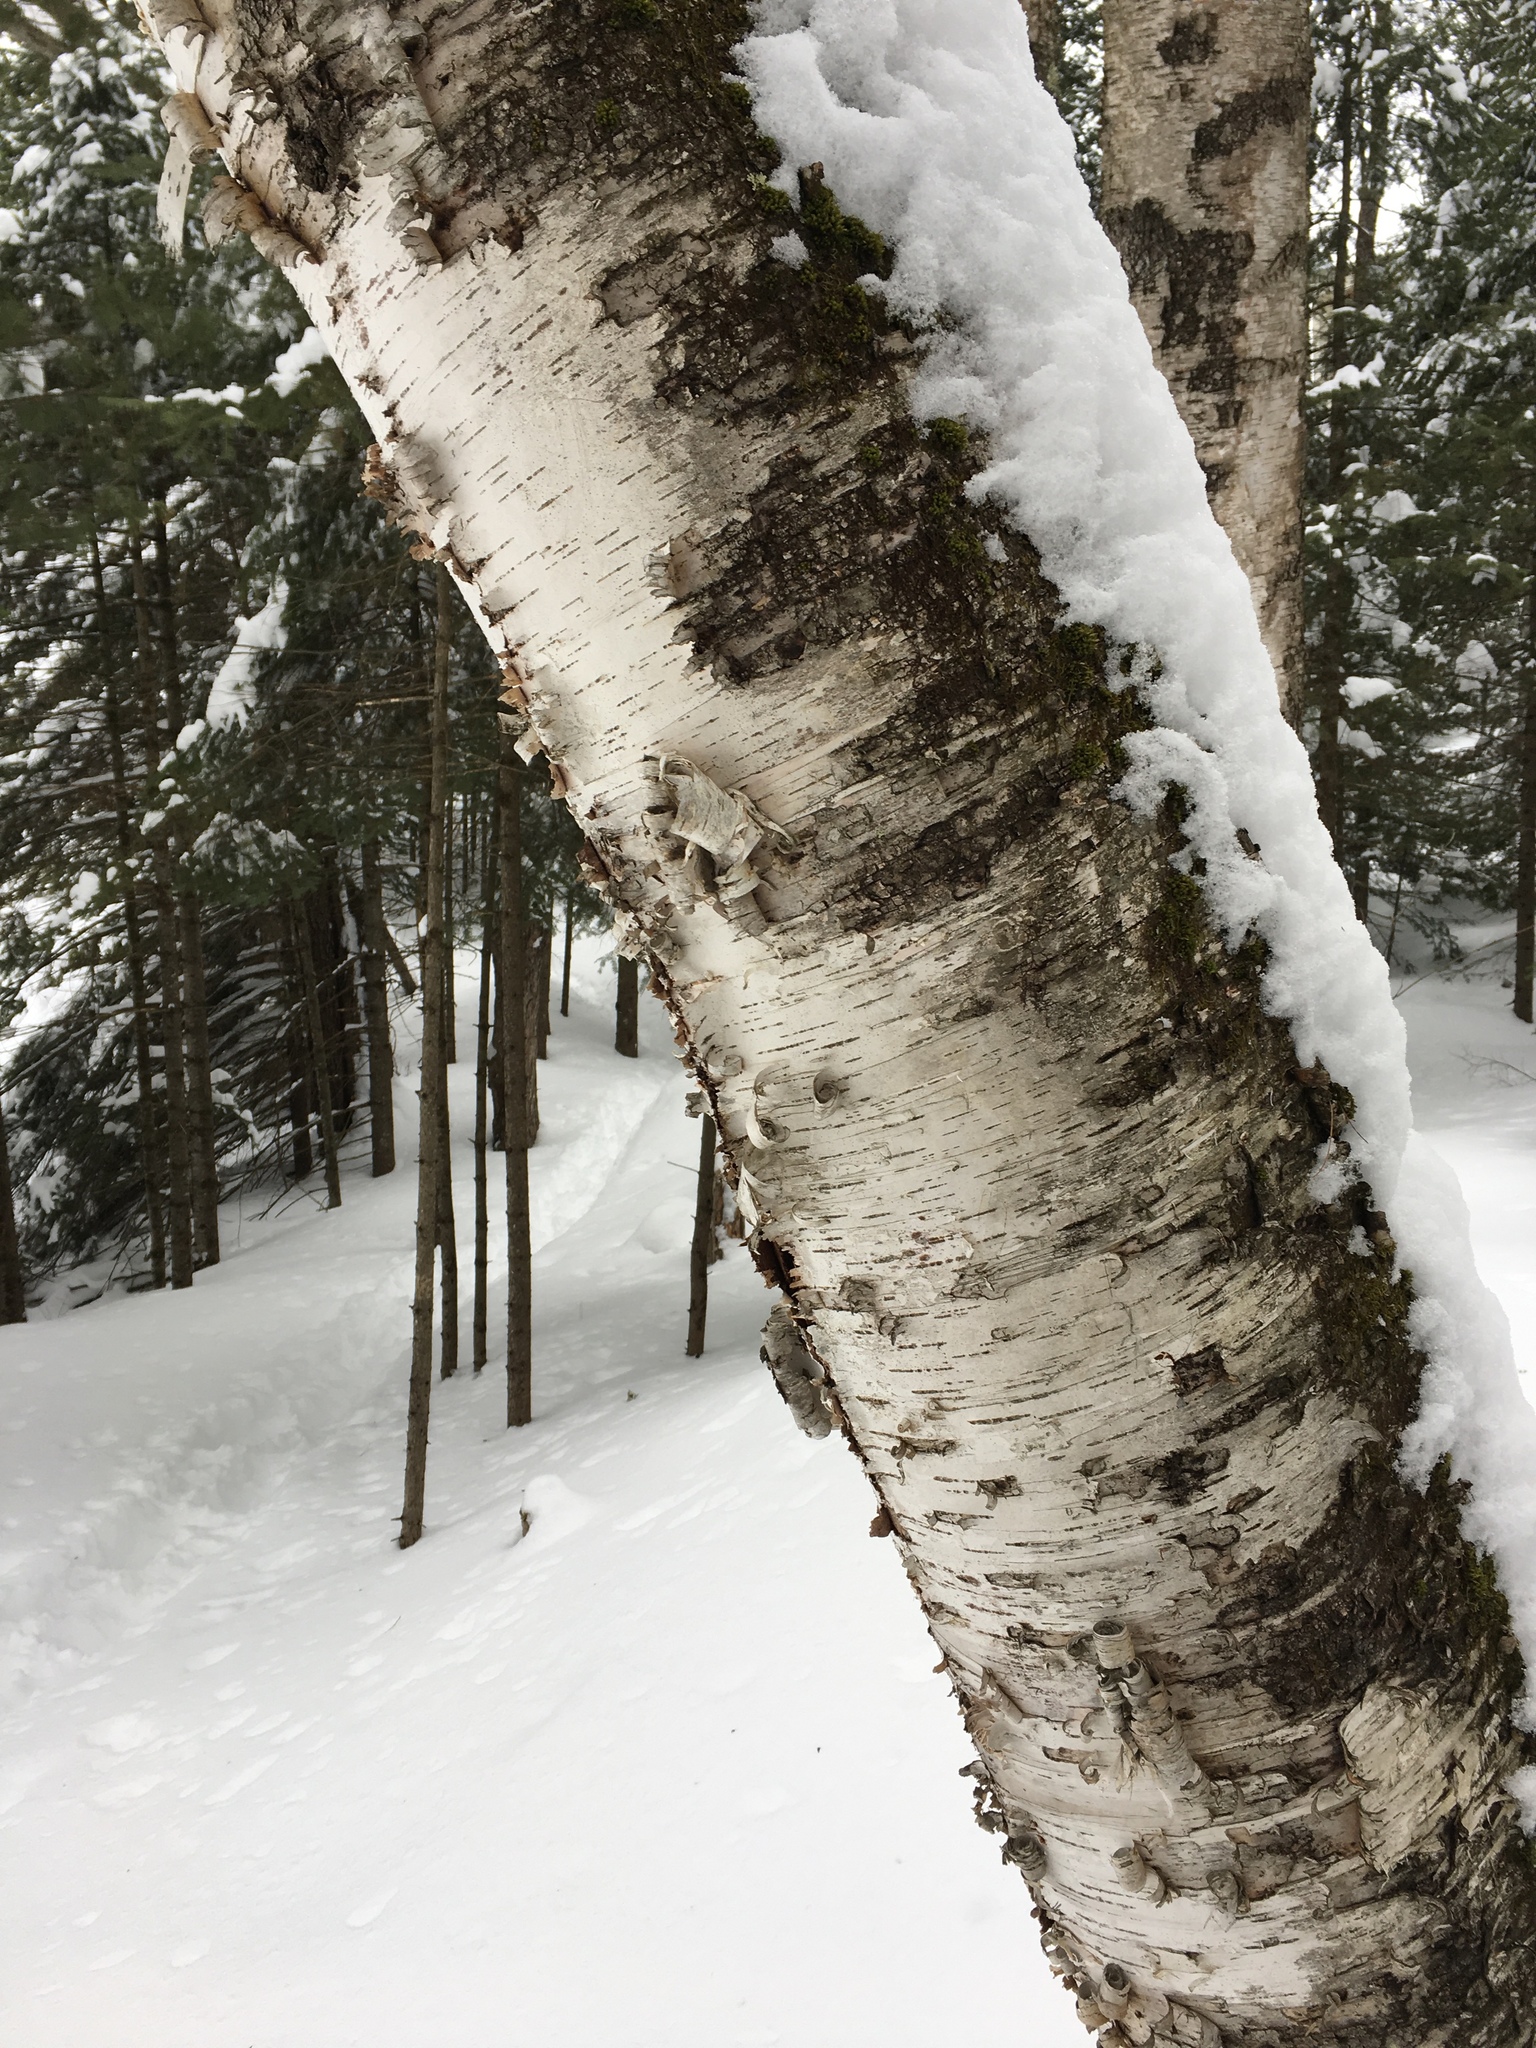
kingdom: Plantae
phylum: Tracheophyta
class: Magnoliopsida
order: Fagales
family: Betulaceae
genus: Betula
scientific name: Betula papyrifera
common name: Paper birch
